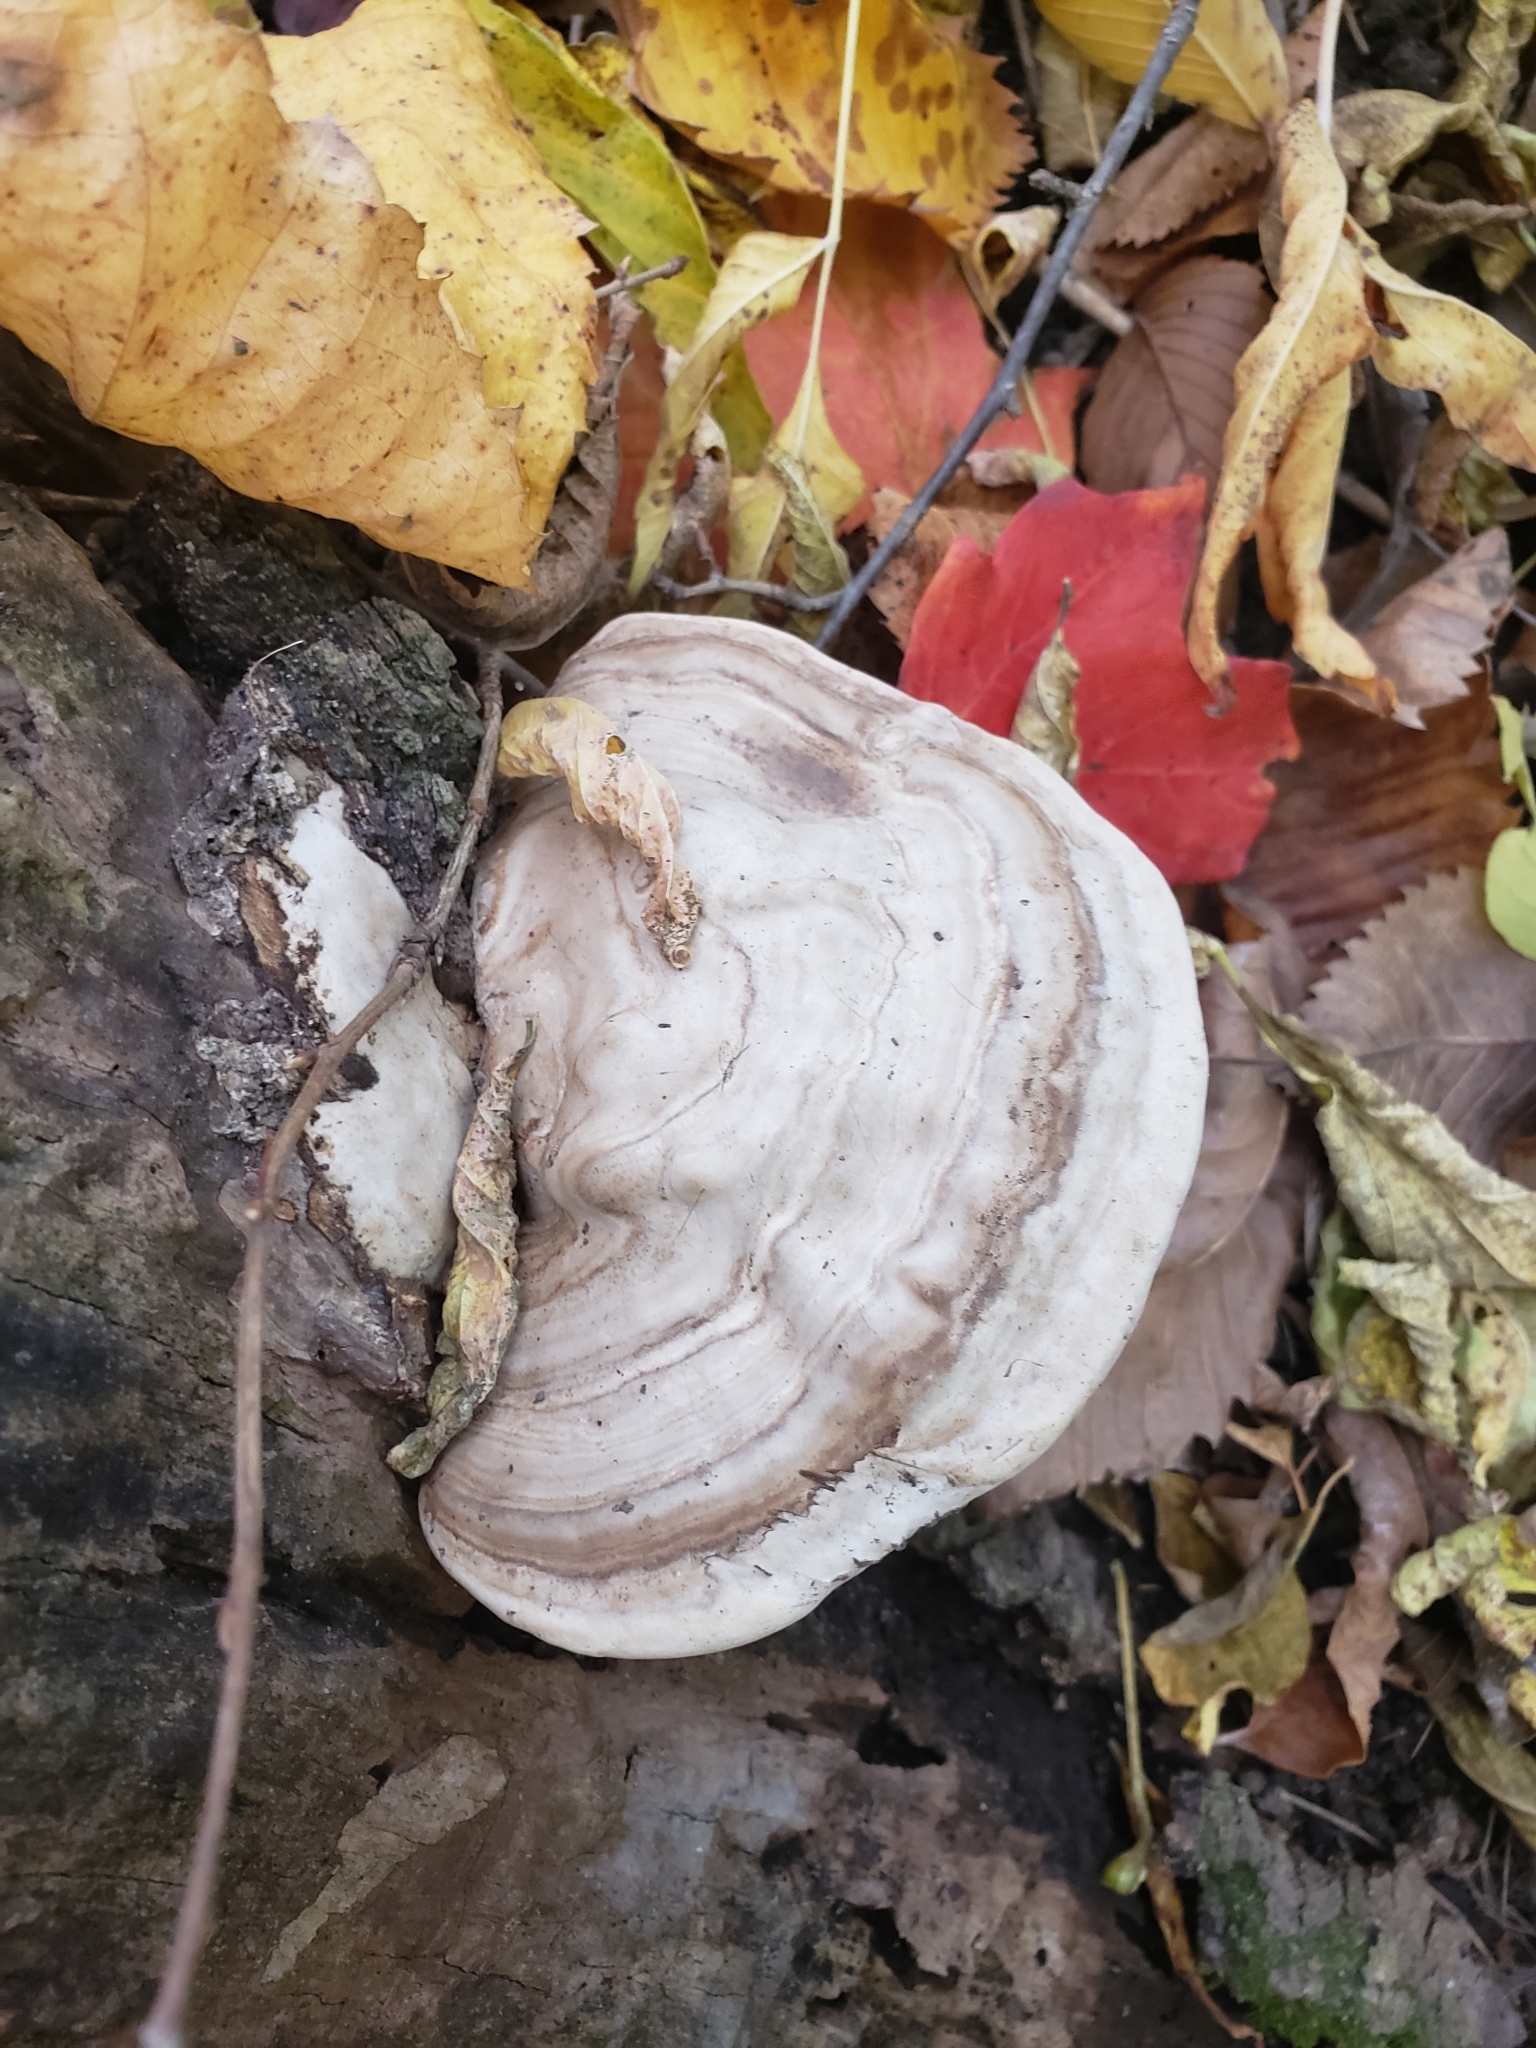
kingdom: Fungi
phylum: Basidiomycota
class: Agaricomycetes
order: Polyporales
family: Polyporaceae
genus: Ganoderma
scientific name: Ganoderma applanatum
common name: Artist's bracket
